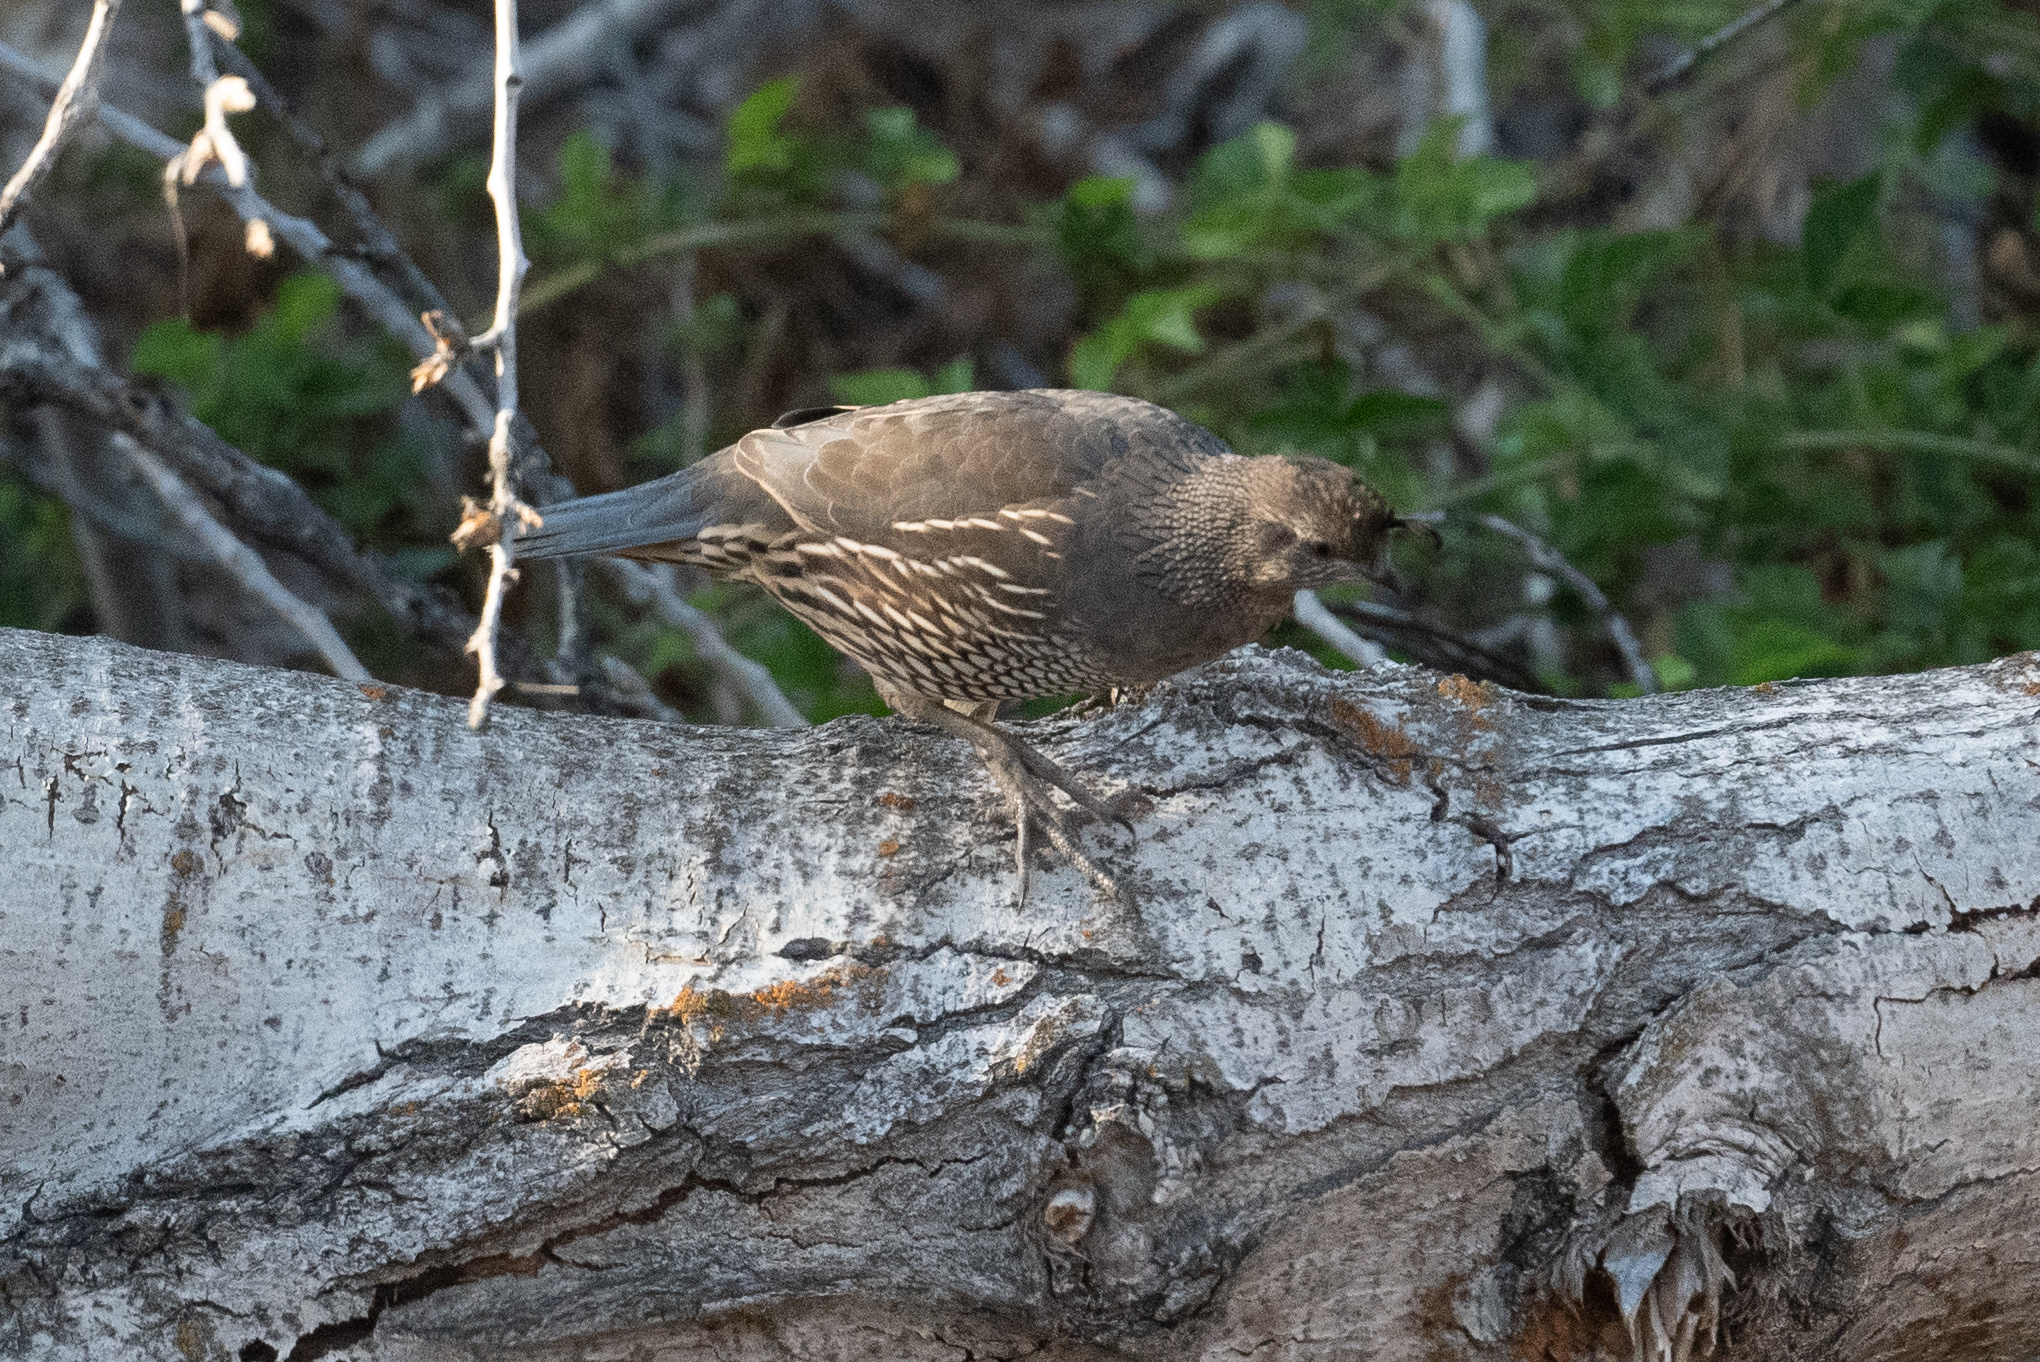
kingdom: Animalia
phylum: Chordata
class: Aves
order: Galliformes
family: Odontophoridae
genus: Callipepla
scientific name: Callipepla californica
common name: California quail
